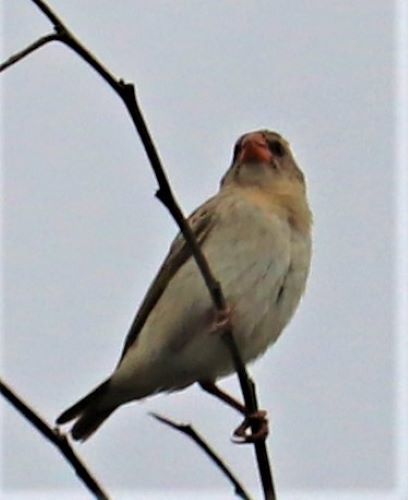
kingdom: Animalia
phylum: Chordata
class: Aves
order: Passeriformes
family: Ploceidae
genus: Quelea
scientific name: Quelea quelea
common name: Red-billed quelea
